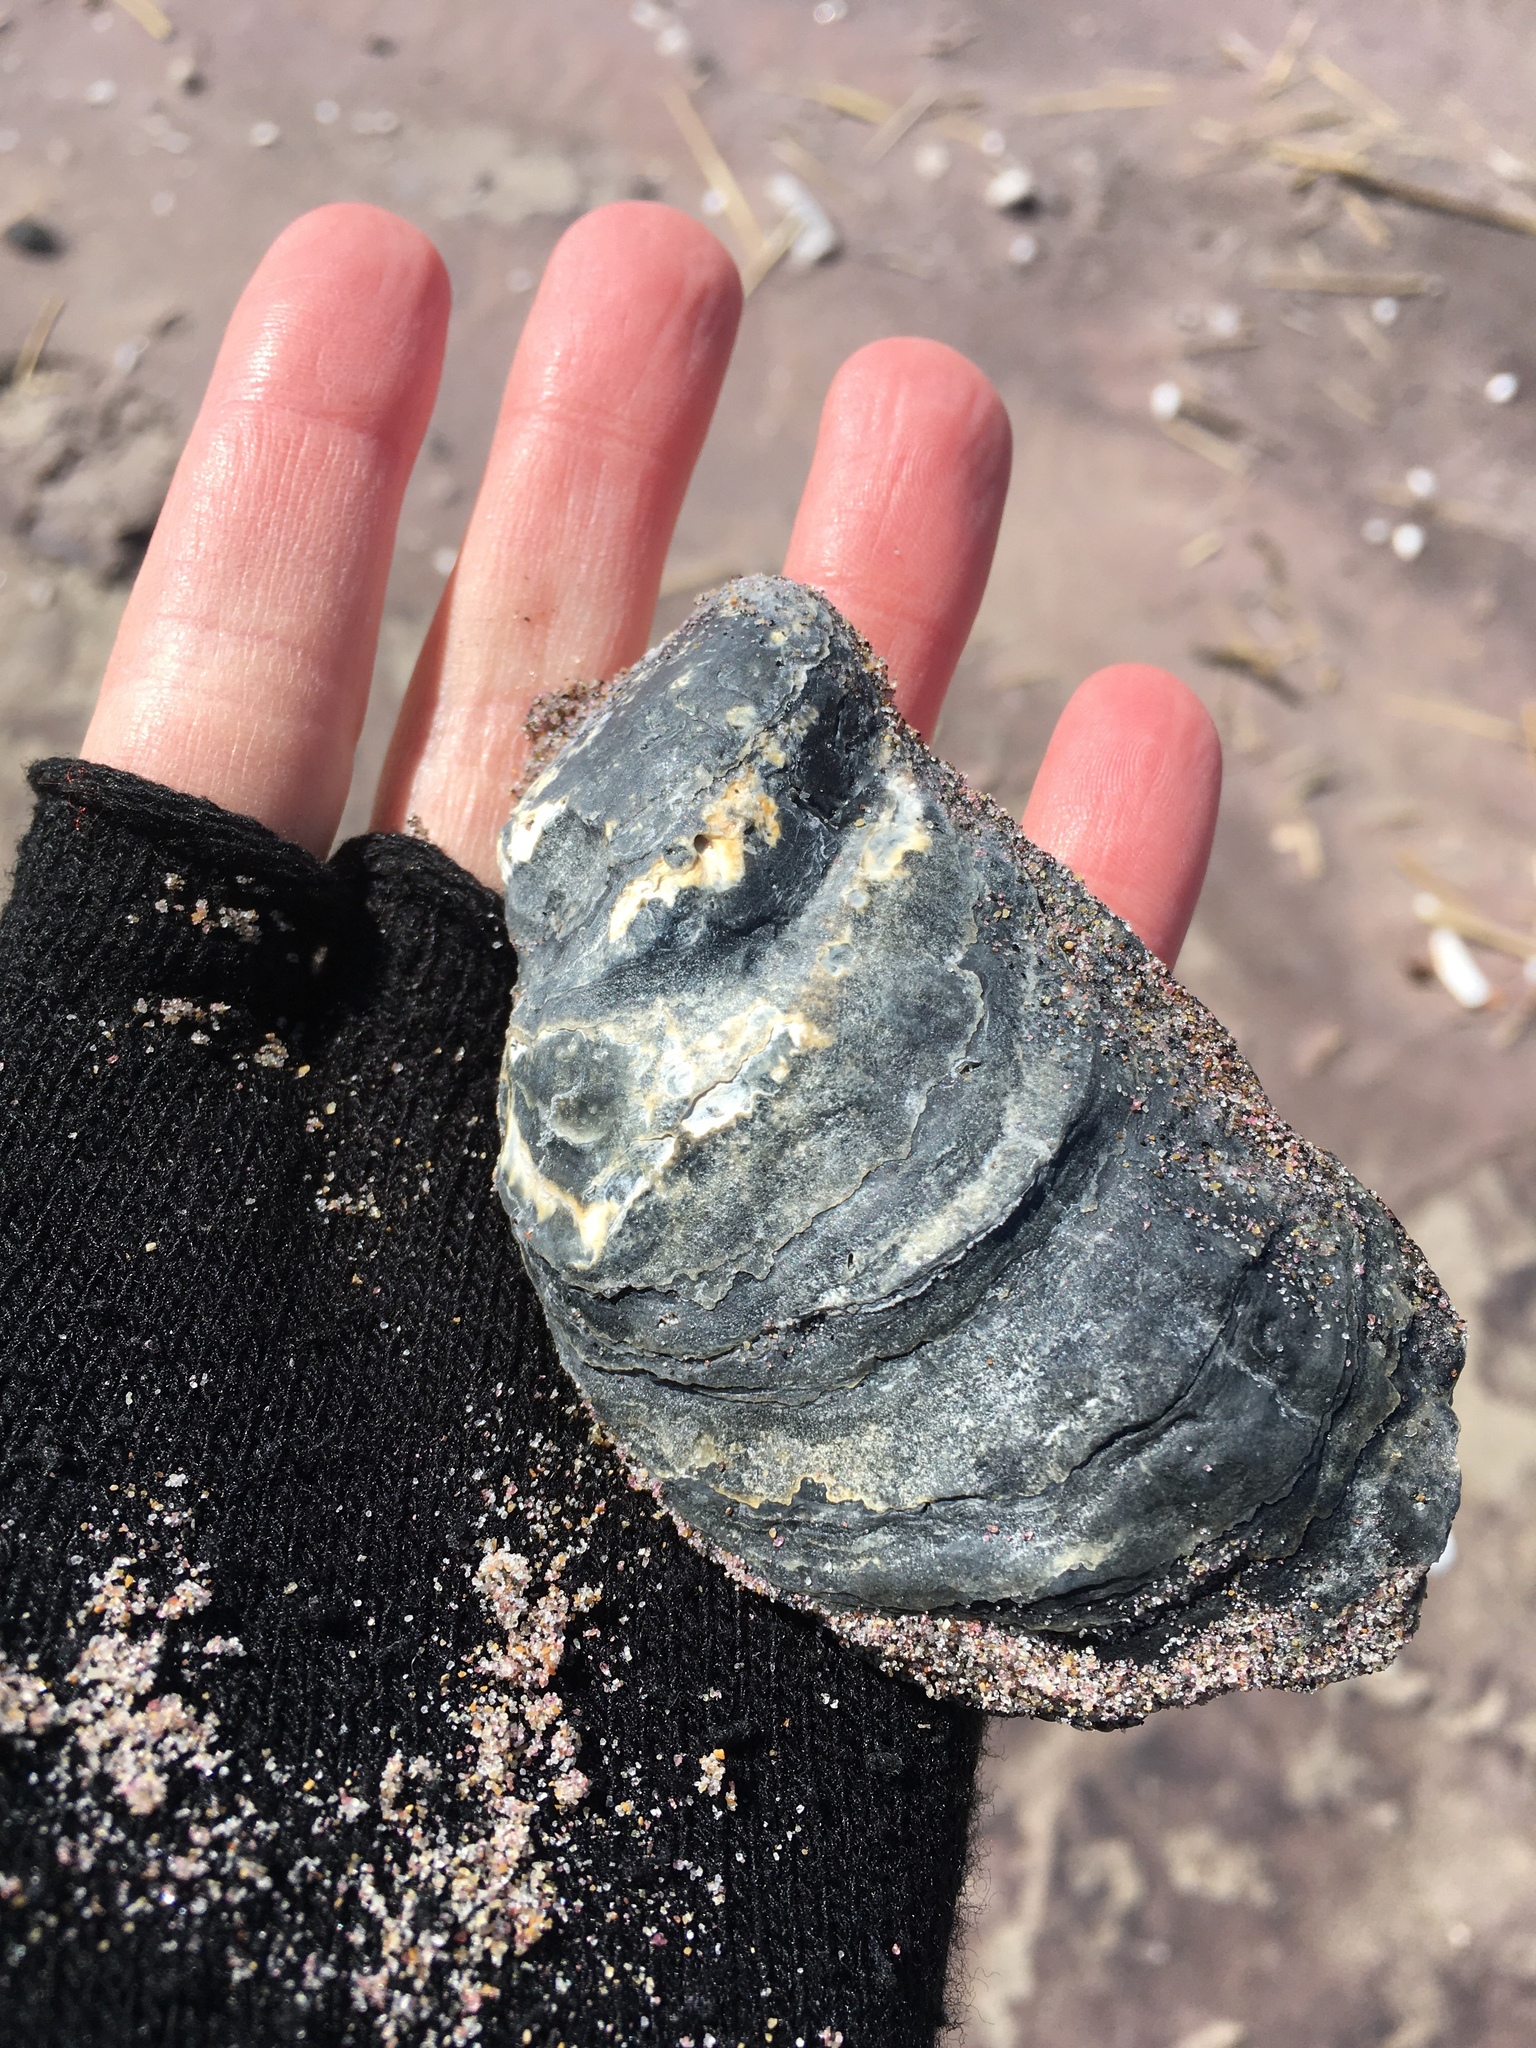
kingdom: Animalia
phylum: Mollusca
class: Bivalvia
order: Ostreida
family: Ostreidae
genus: Crassostrea
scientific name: Crassostrea virginica
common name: American oyster
